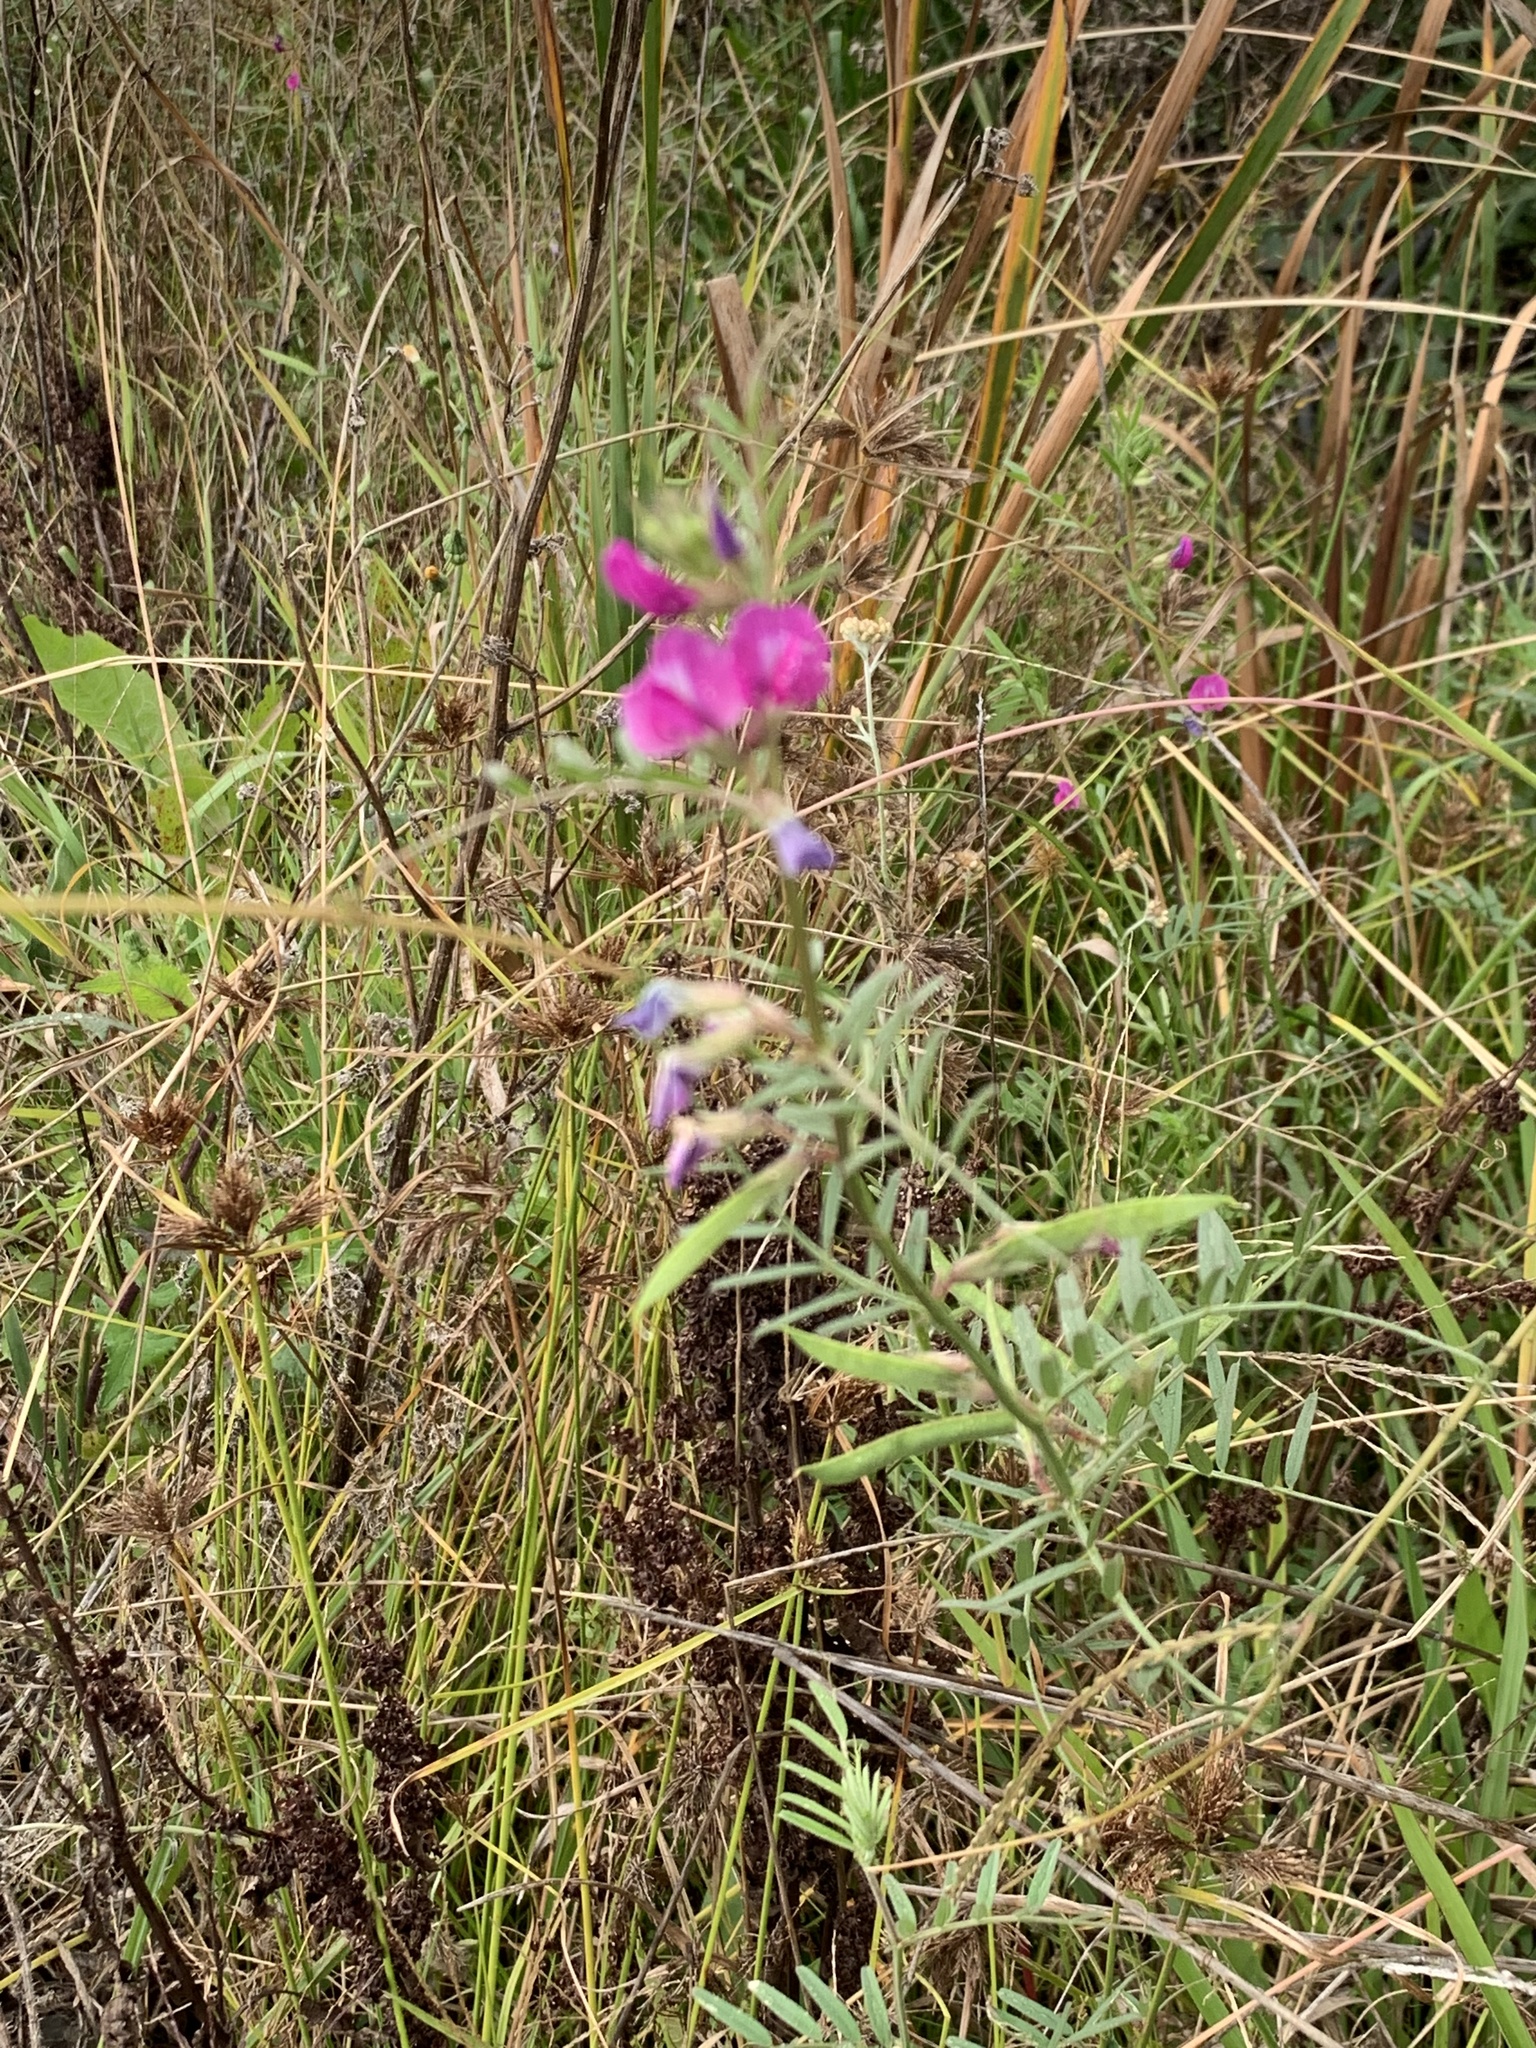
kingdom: Plantae
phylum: Tracheophyta
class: Magnoliopsida
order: Fabales
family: Fabaceae
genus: Vicia
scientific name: Vicia sativa
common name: Garden vetch
